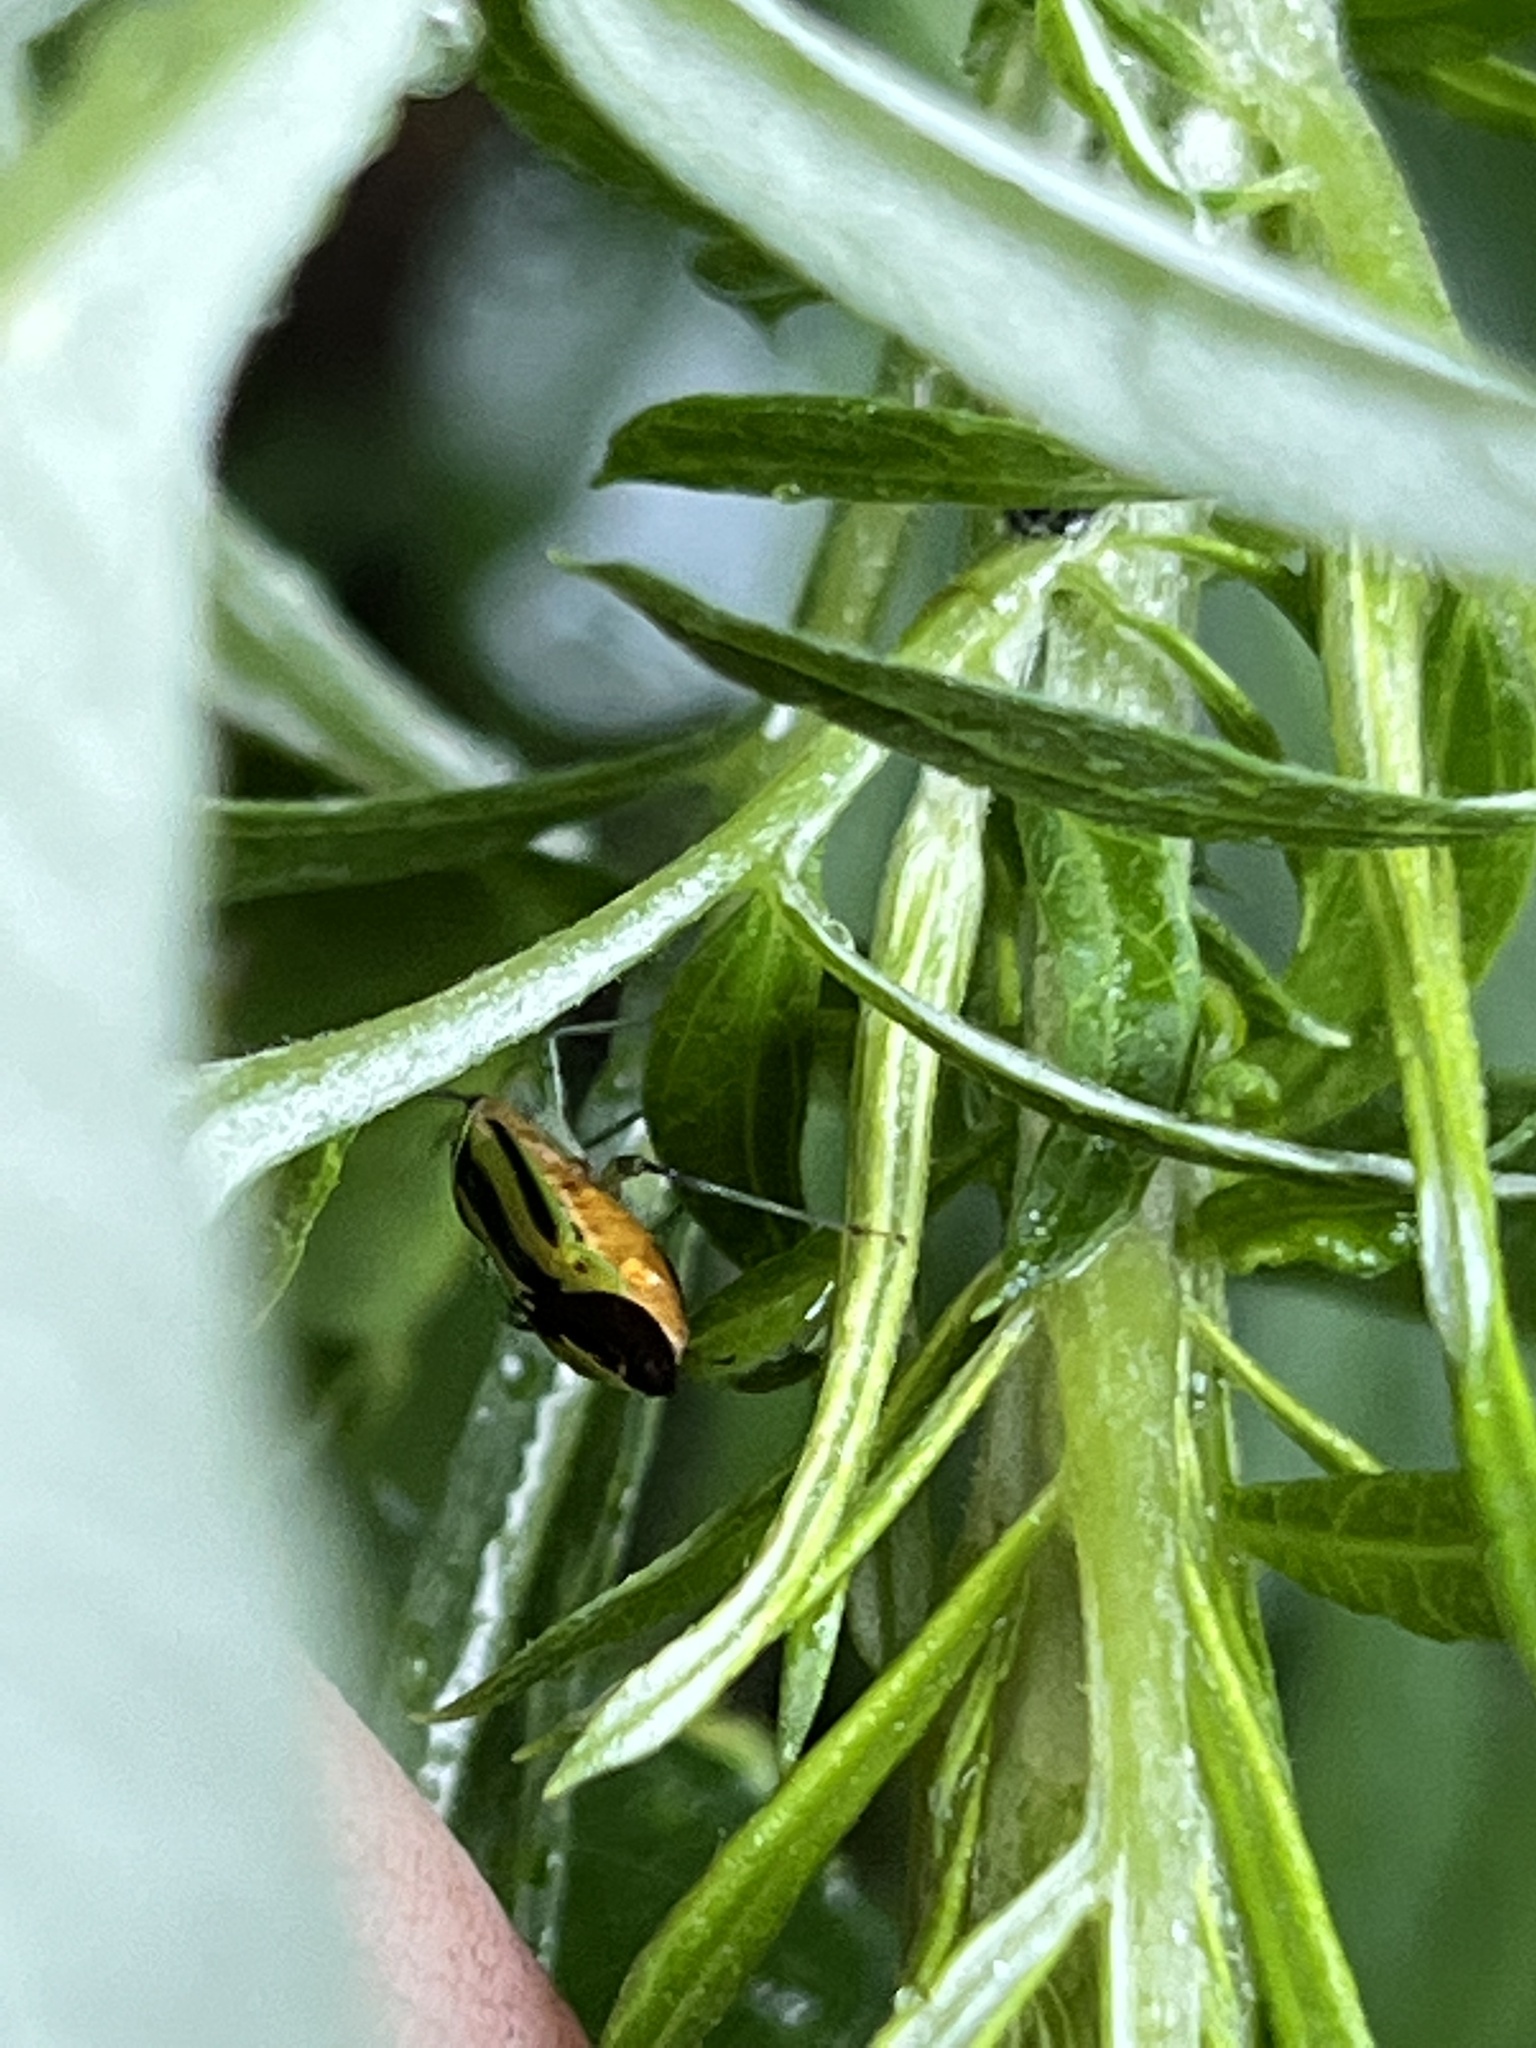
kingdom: Animalia
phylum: Arthropoda
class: Insecta
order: Hemiptera
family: Miridae
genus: Poecilocapsus
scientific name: Poecilocapsus lineatus
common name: Four-lined plant bug
